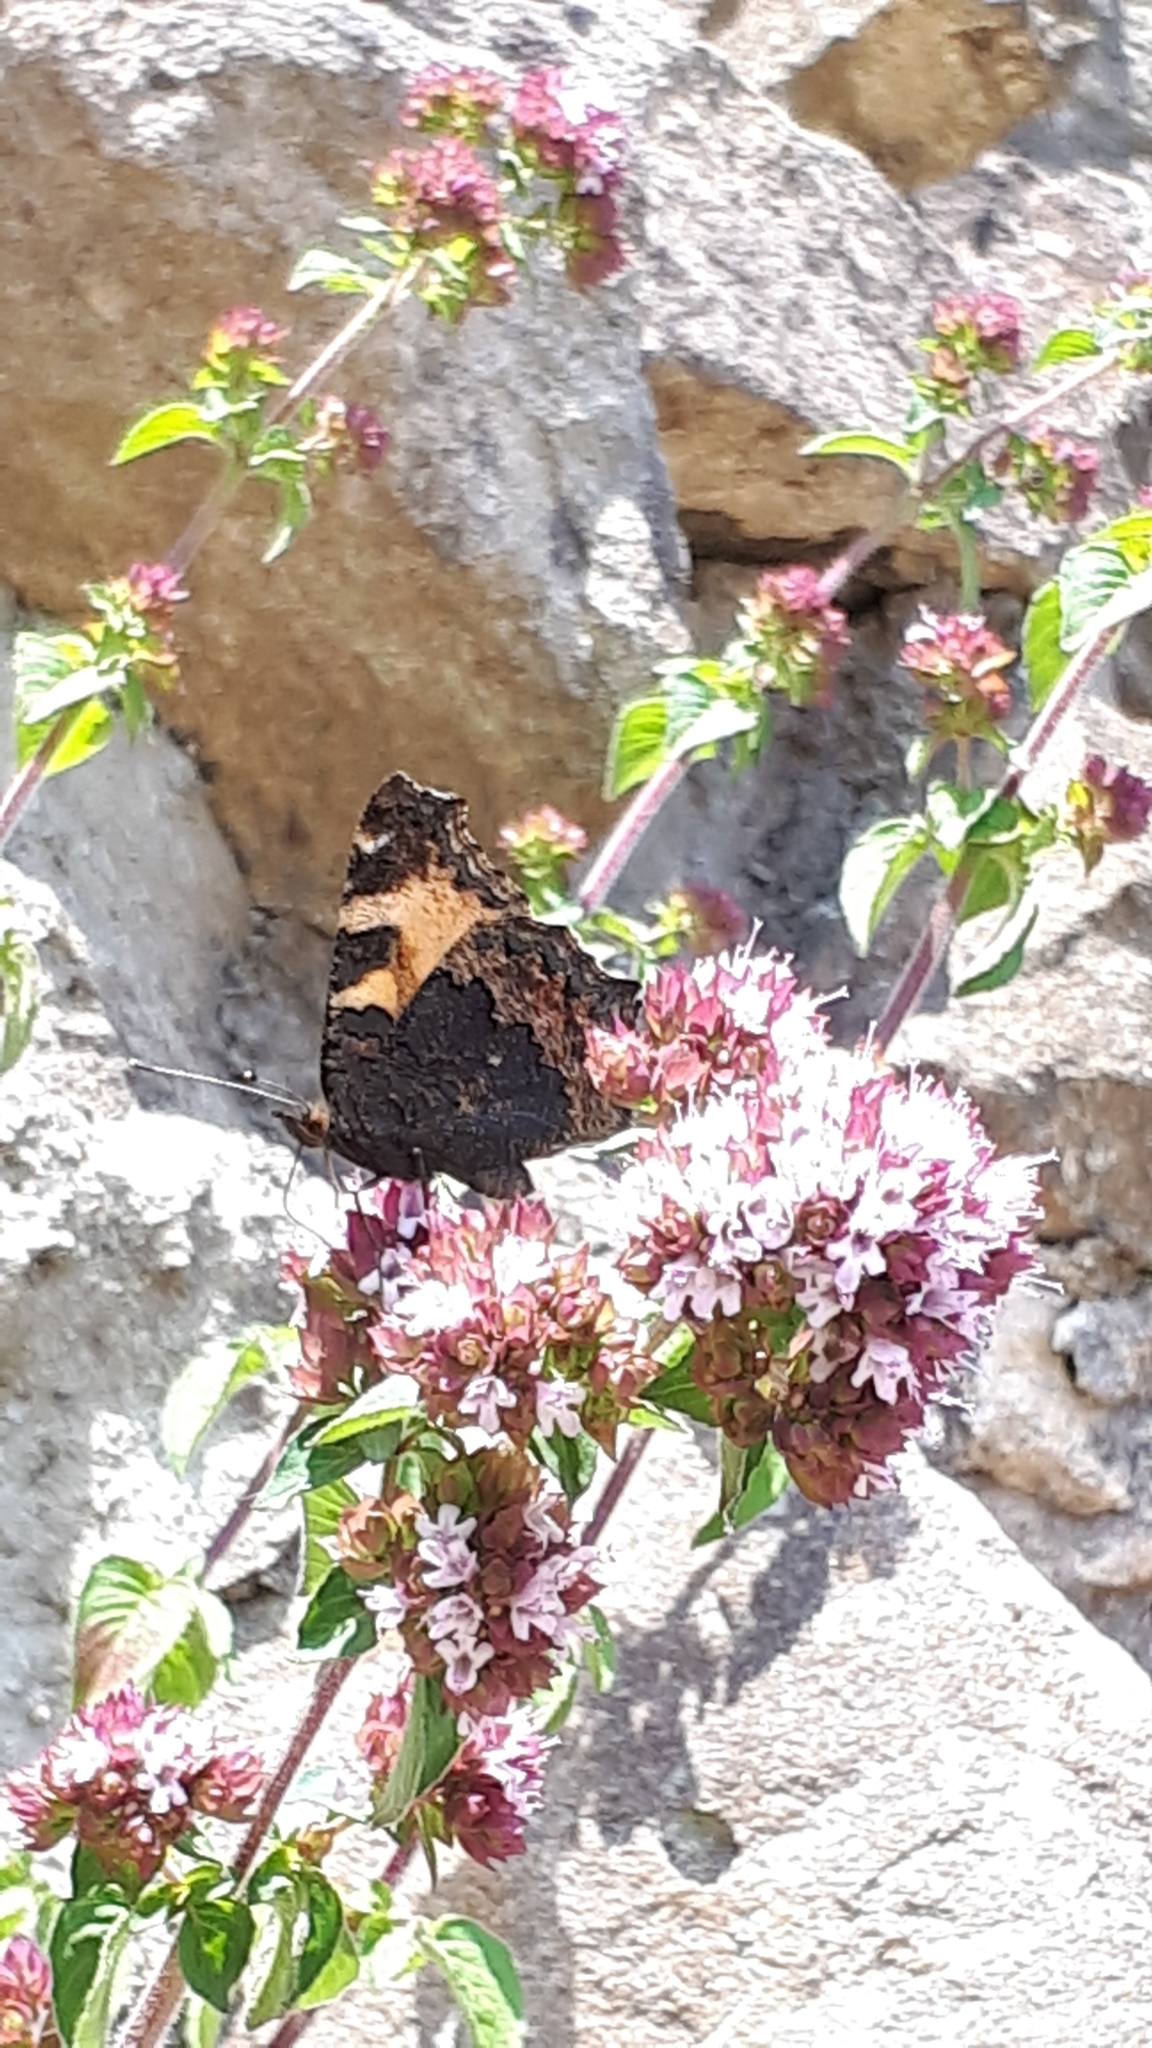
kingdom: Animalia
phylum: Arthropoda
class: Insecta
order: Lepidoptera
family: Nymphalidae
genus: Aglais
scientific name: Aglais urticae
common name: Small tortoiseshell
